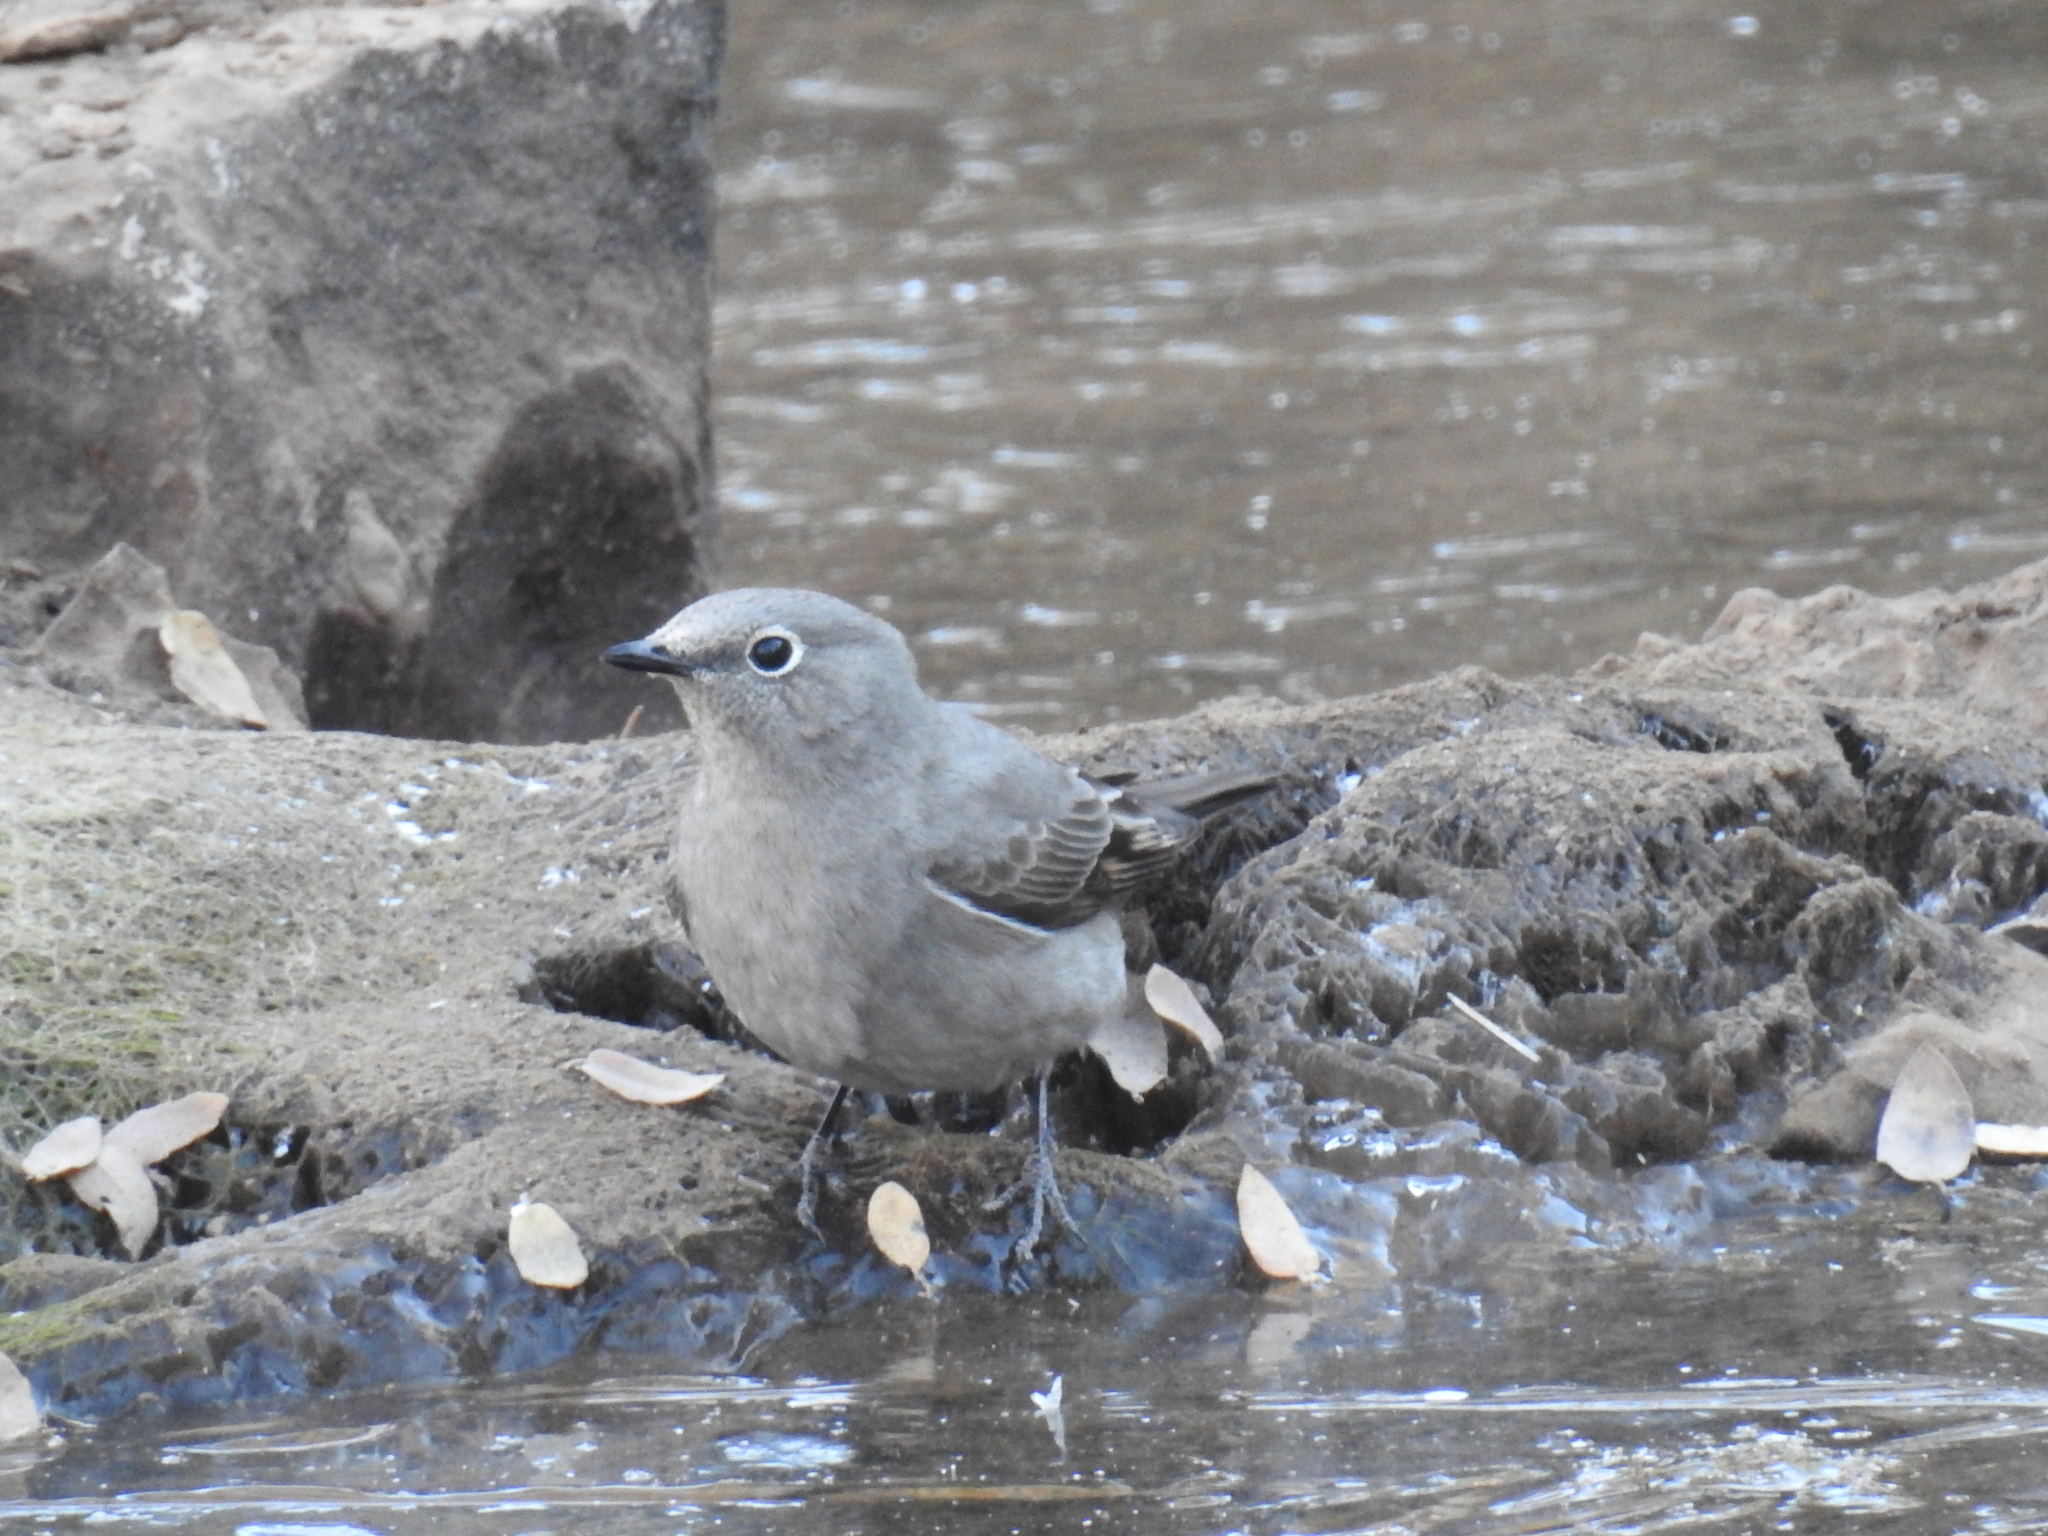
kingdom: Animalia
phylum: Chordata
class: Aves
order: Passeriformes
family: Turdidae
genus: Myadestes
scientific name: Myadestes townsendi
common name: Townsend's solitaire
